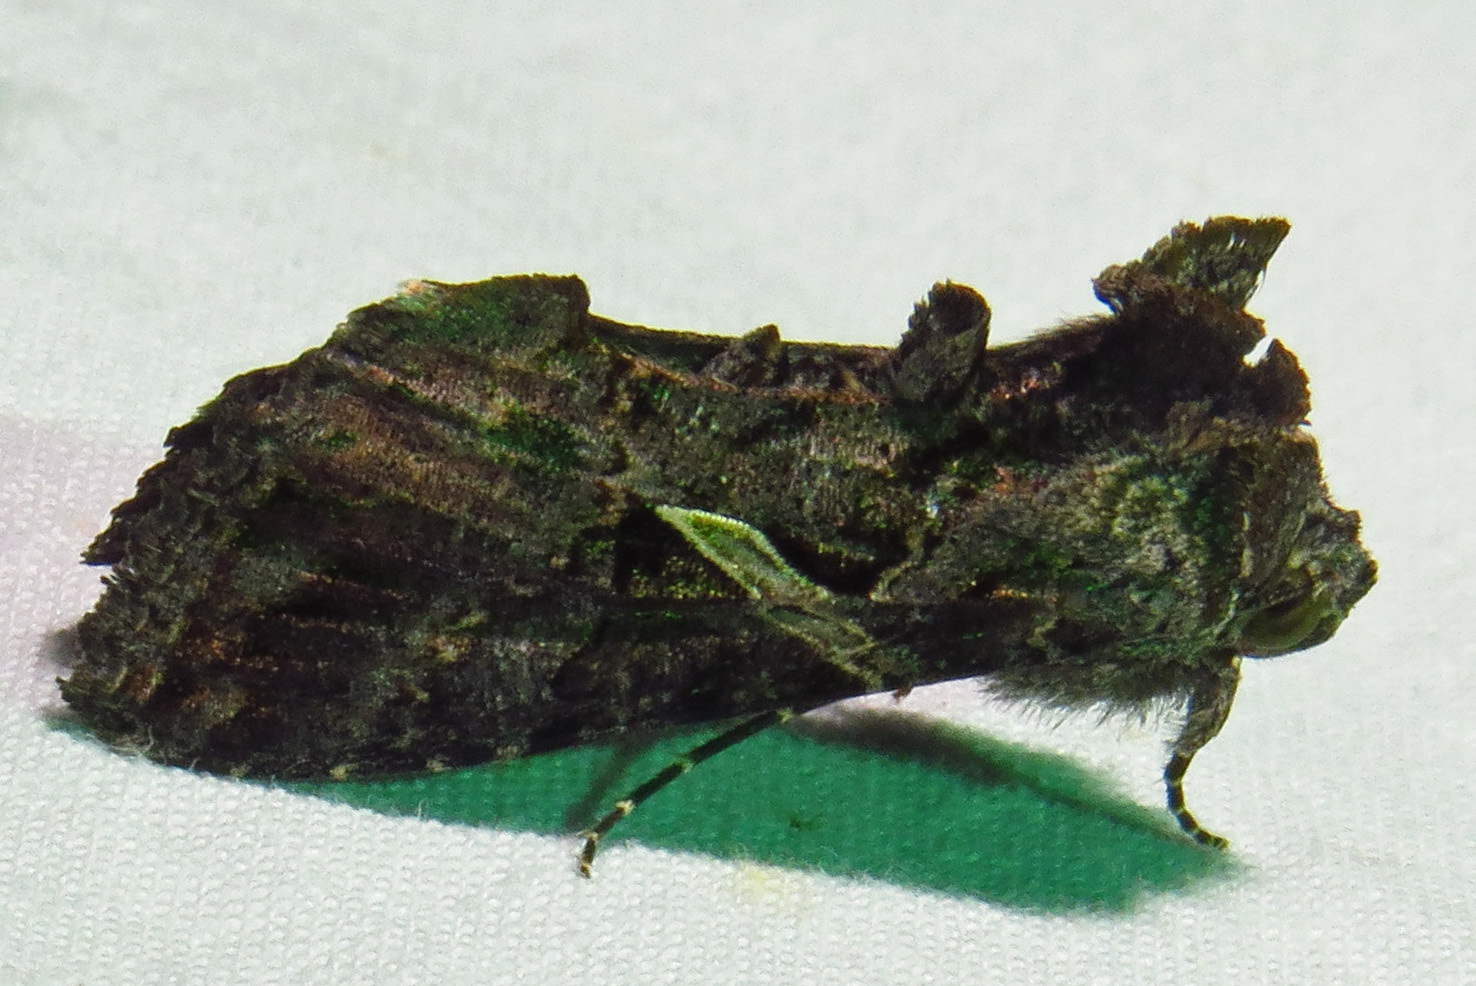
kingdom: Animalia
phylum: Arthropoda
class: Insecta
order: Lepidoptera
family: Noctuidae
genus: Ctenoplusia
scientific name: Ctenoplusia oxygramma
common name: Sharp-stigma looper moth
